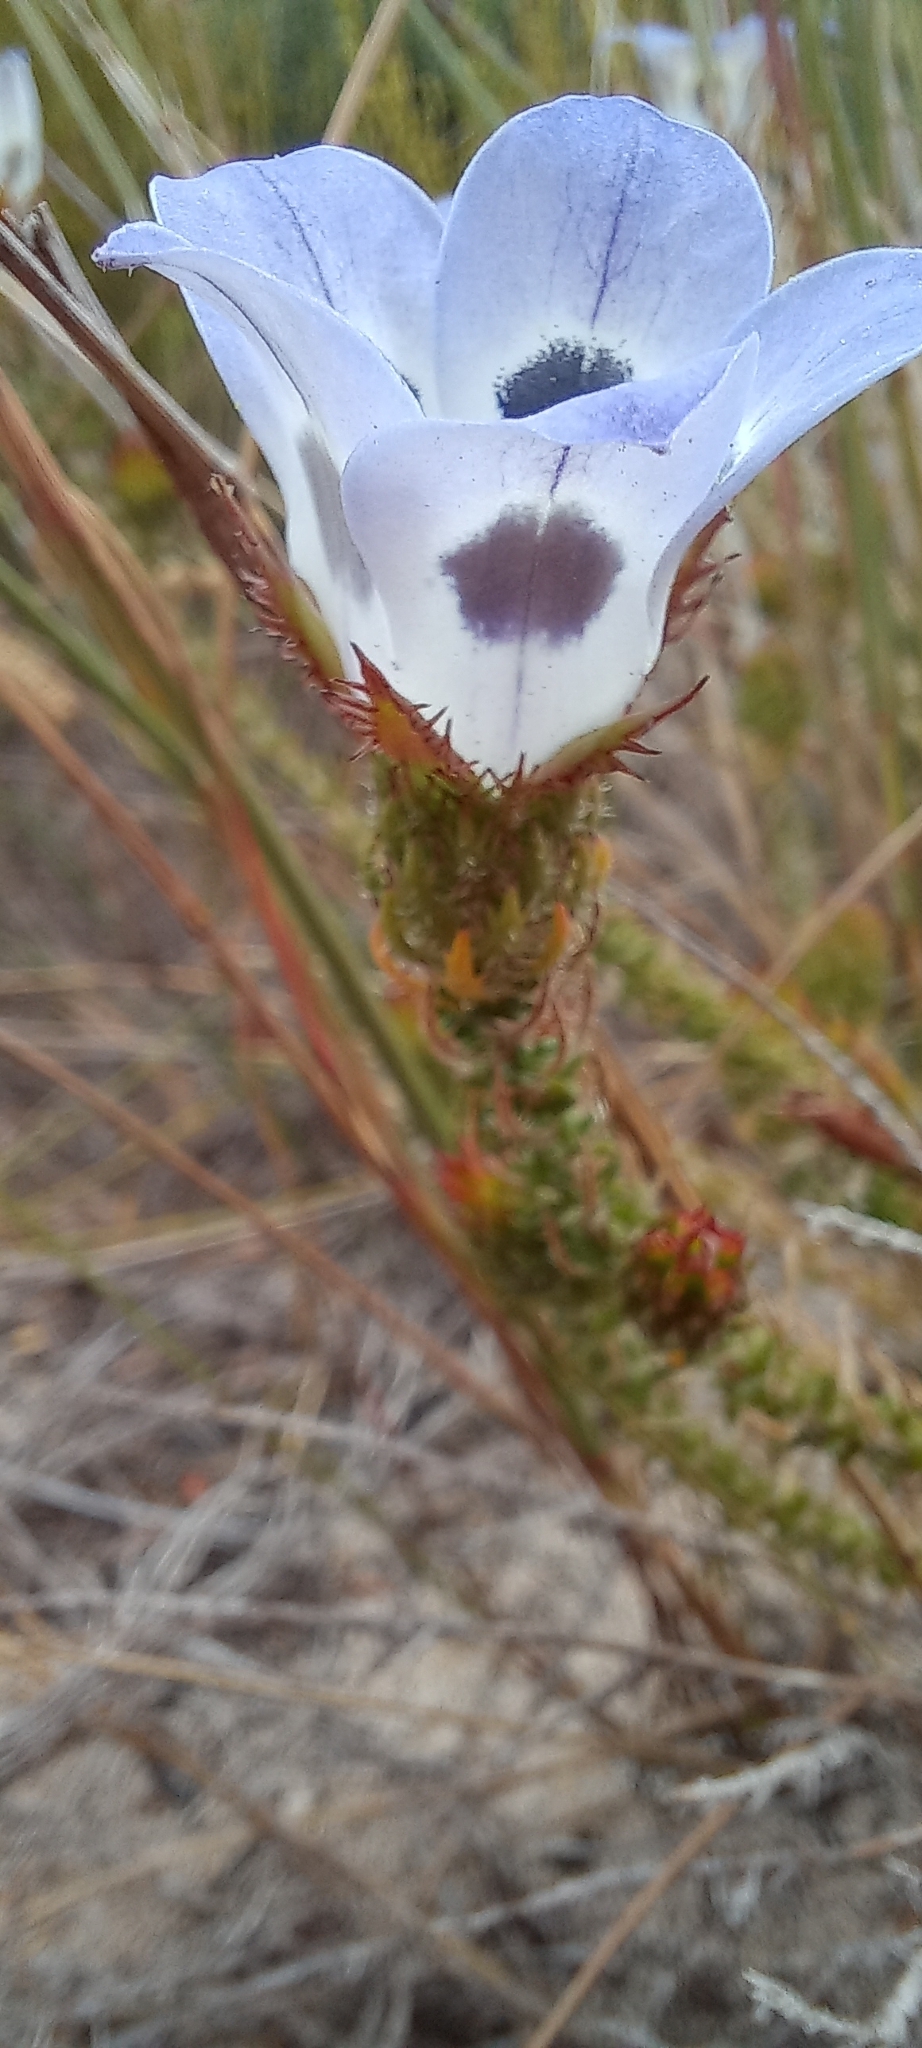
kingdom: Plantae
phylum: Tracheophyta
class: Magnoliopsida
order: Asterales
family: Campanulaceae
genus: Roella
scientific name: Roella ciliata
